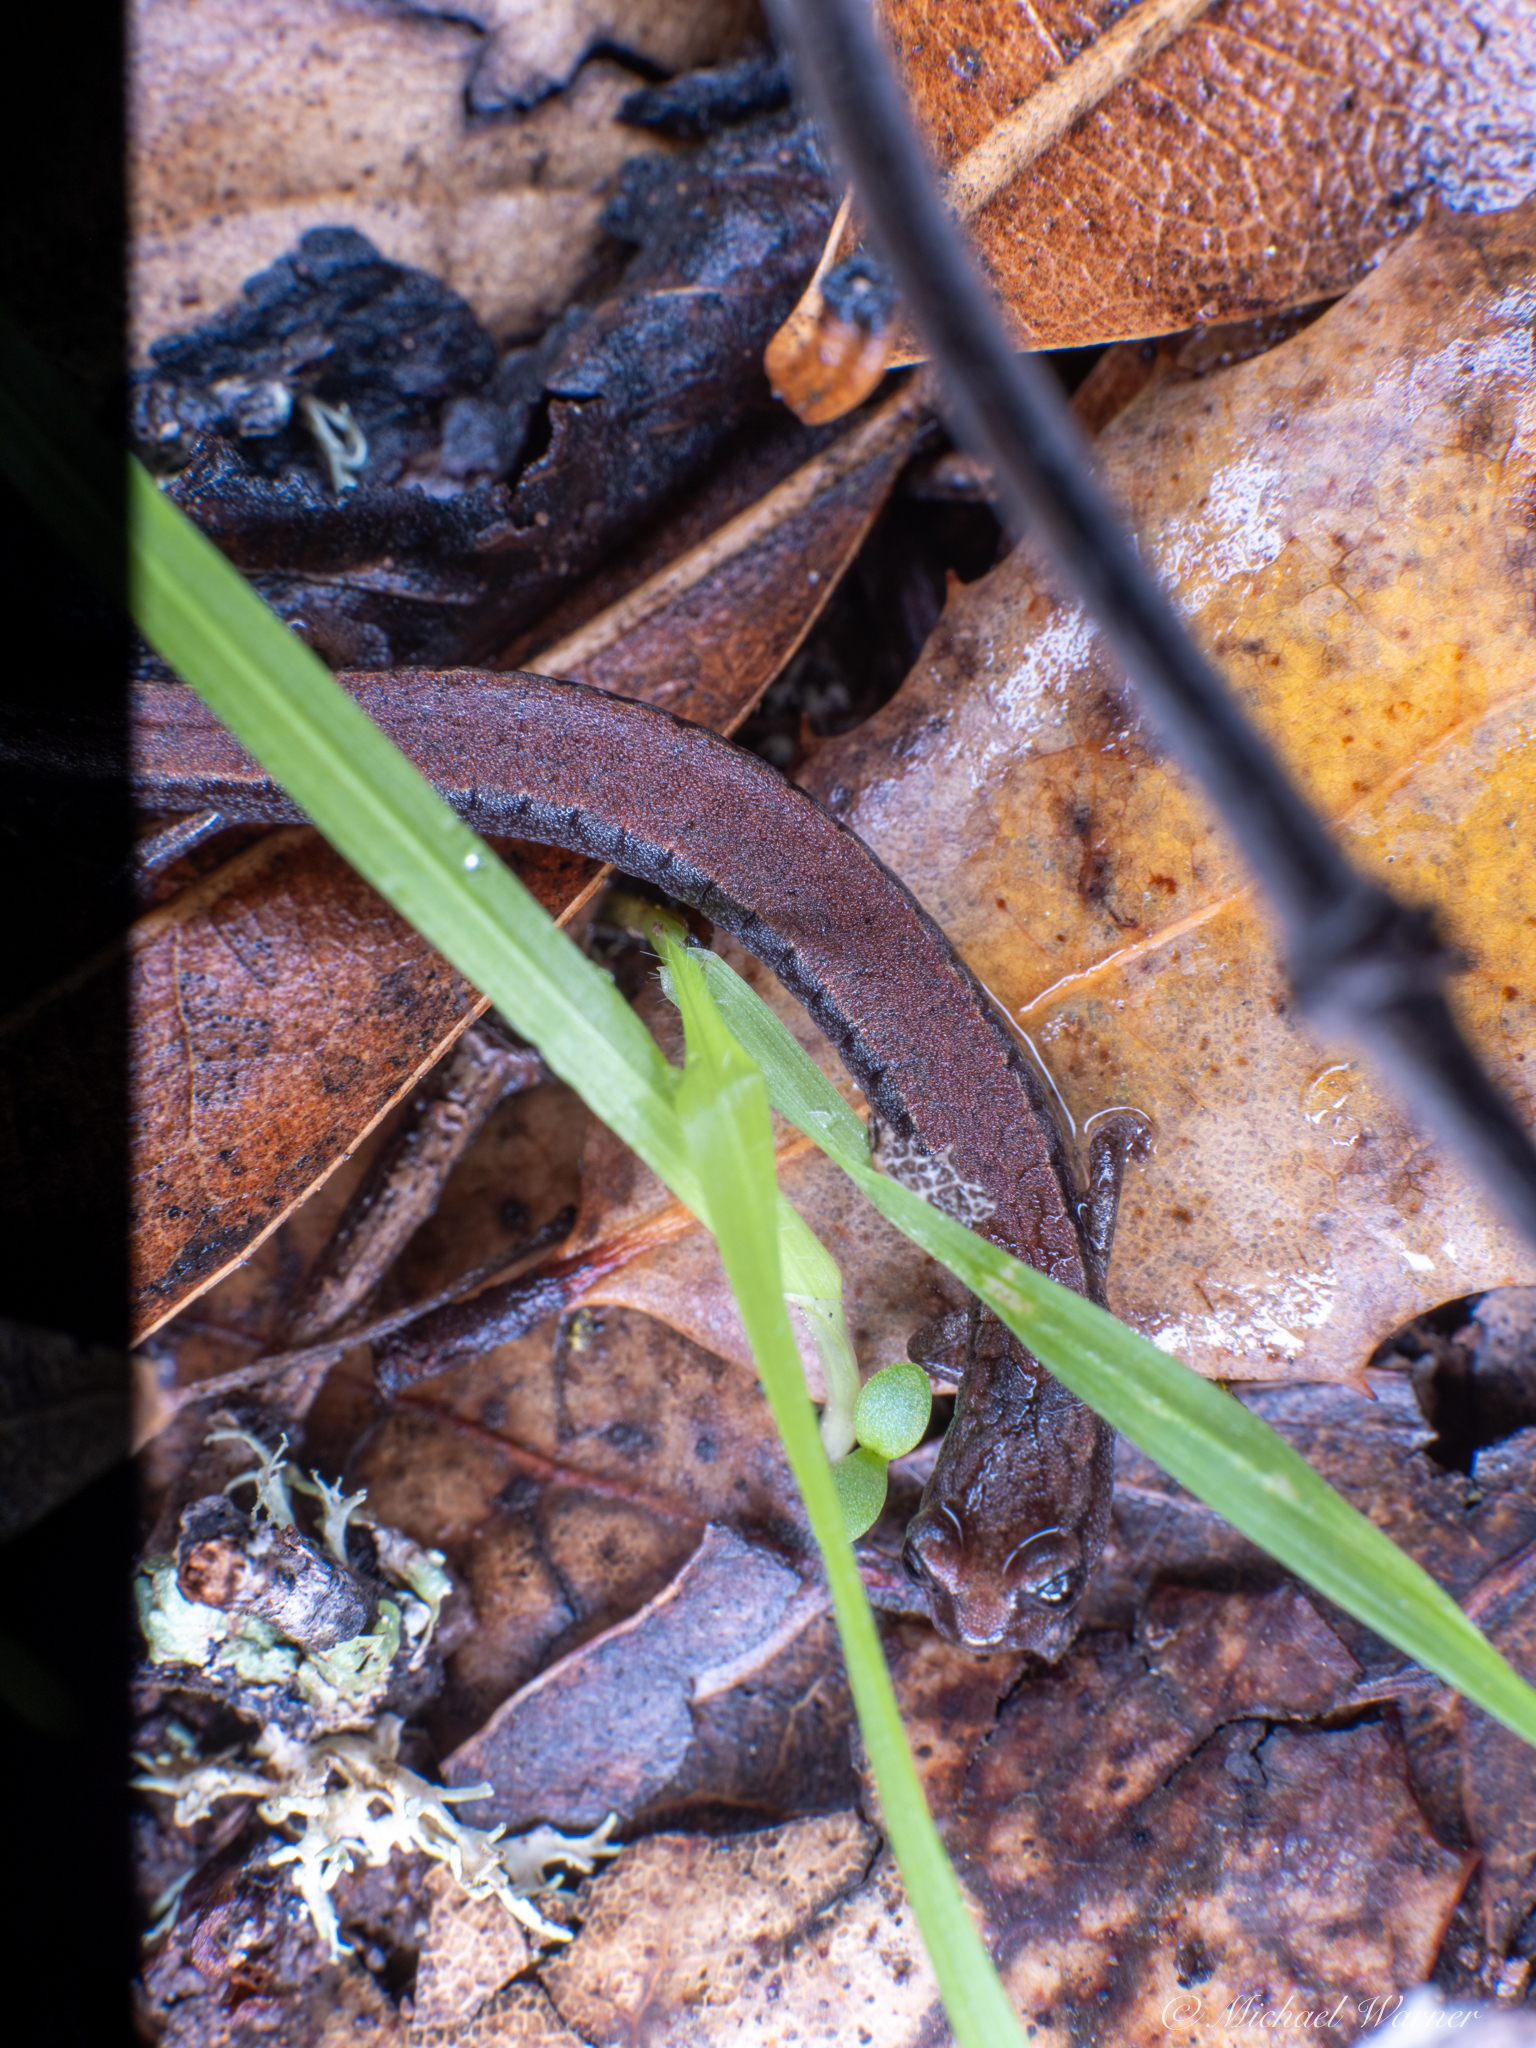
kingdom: Animalia
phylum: Chordata
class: Amphibia
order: Caudata
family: Plethodontidae
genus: Batrachoseps
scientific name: Batrachoseps attenuatus
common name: California slender salamander
